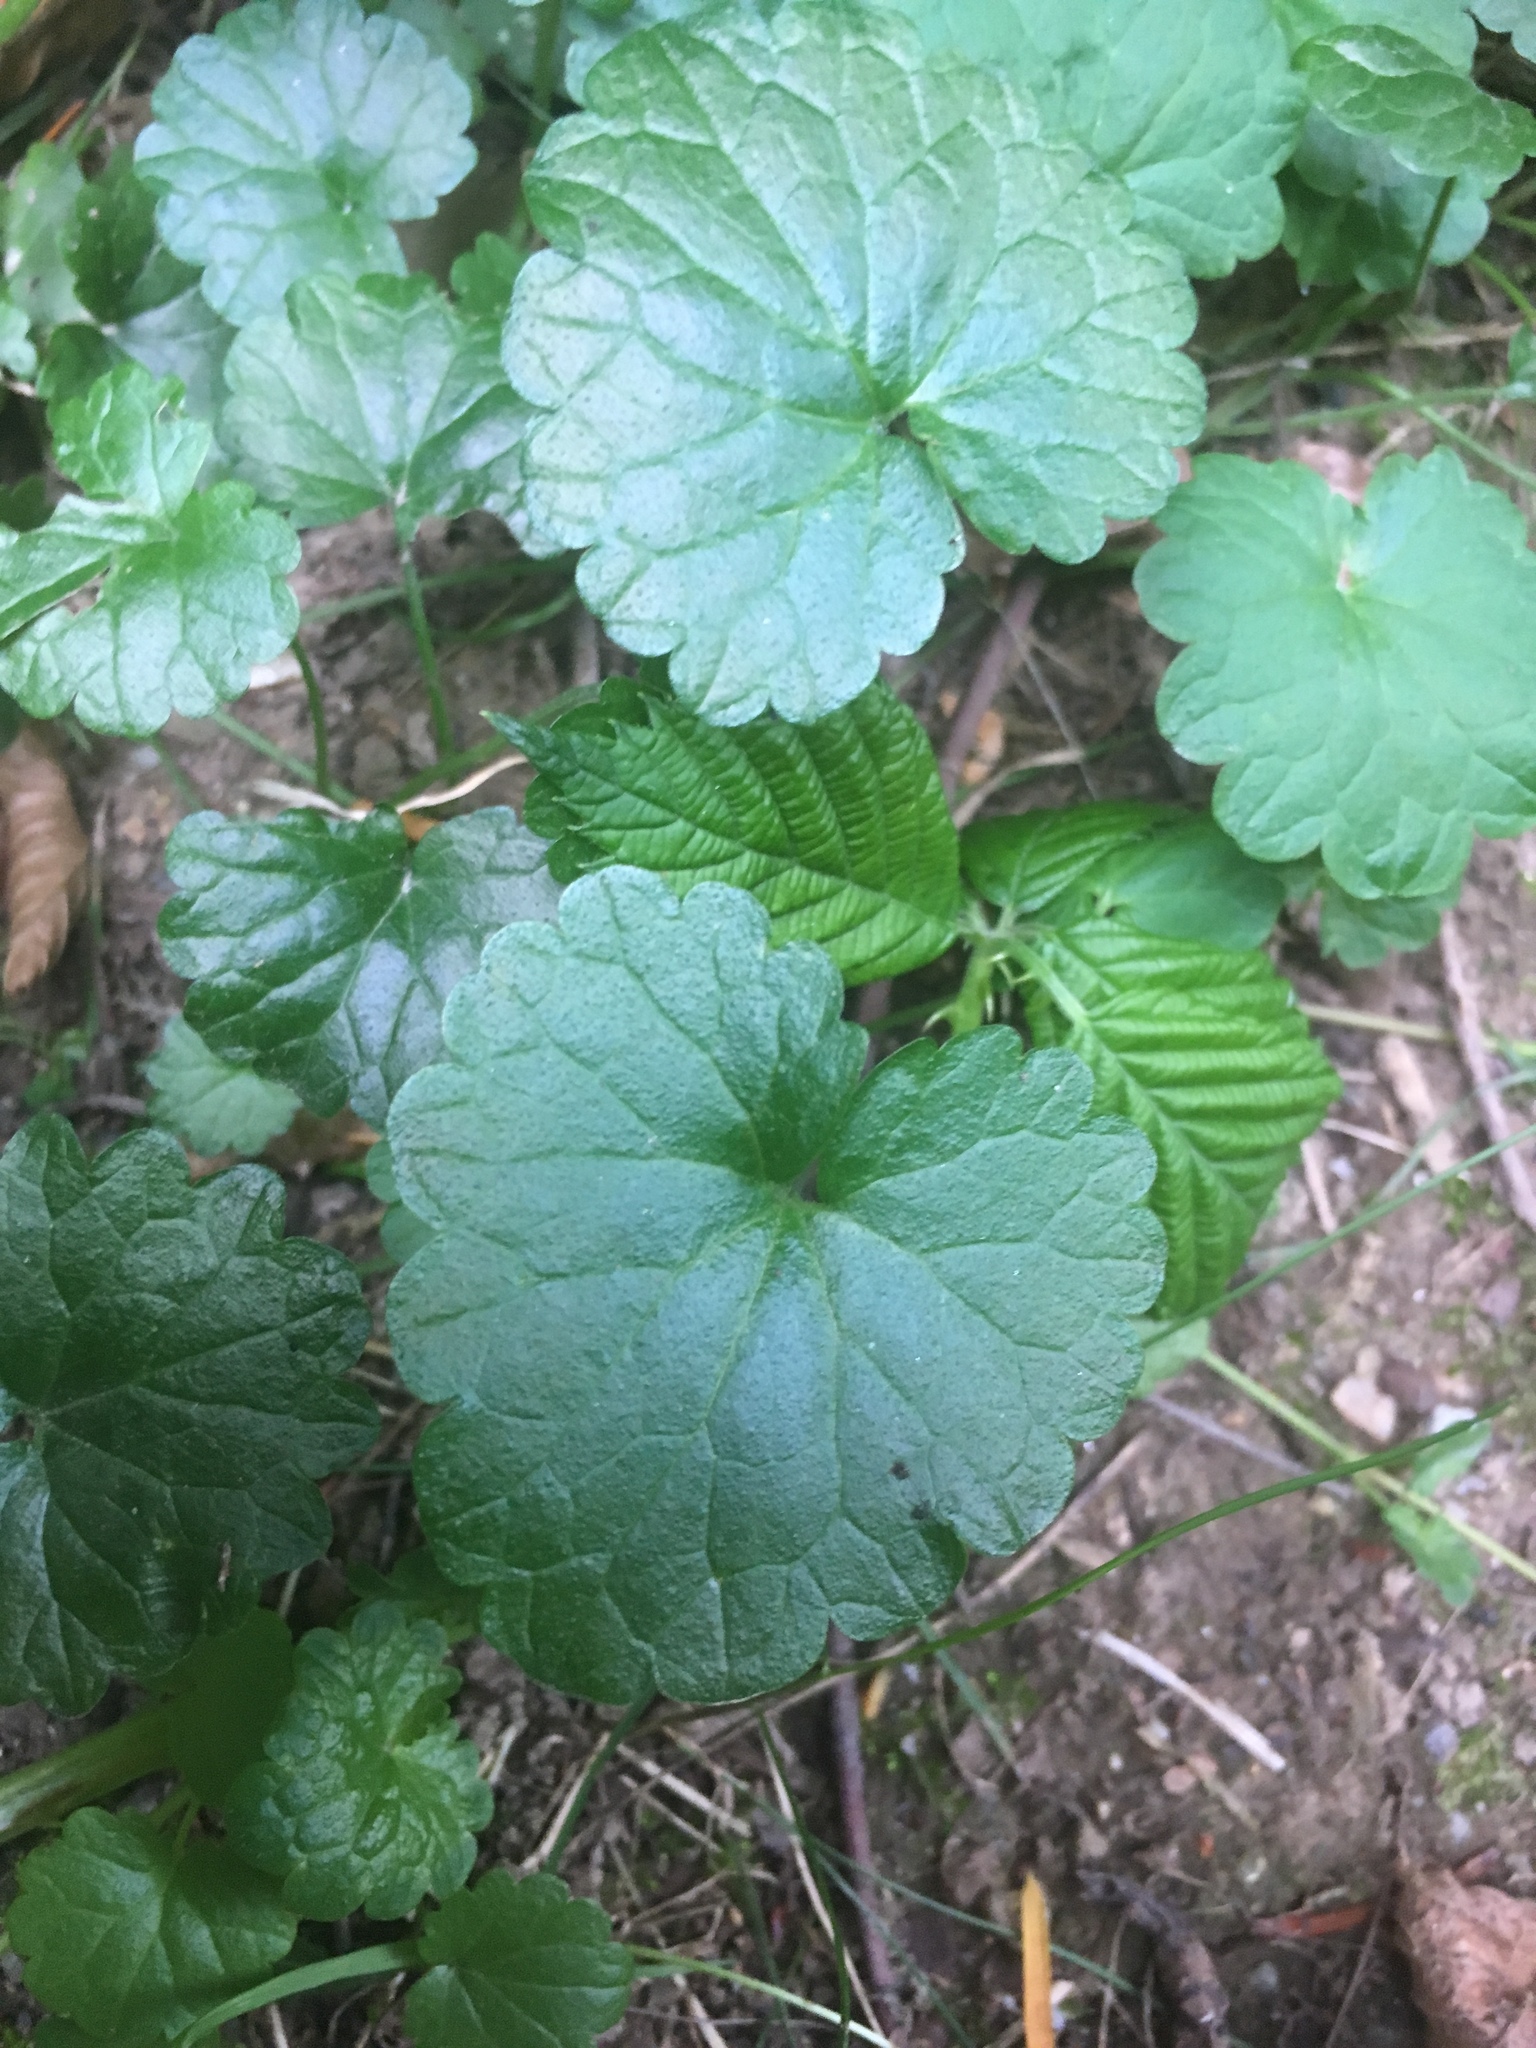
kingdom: Plantae
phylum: Tracheophyta
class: Magnoliopsida
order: Lamiales
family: Lamiaceae
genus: Glechoma
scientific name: Glechoma hederacea
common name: Ground ivy
